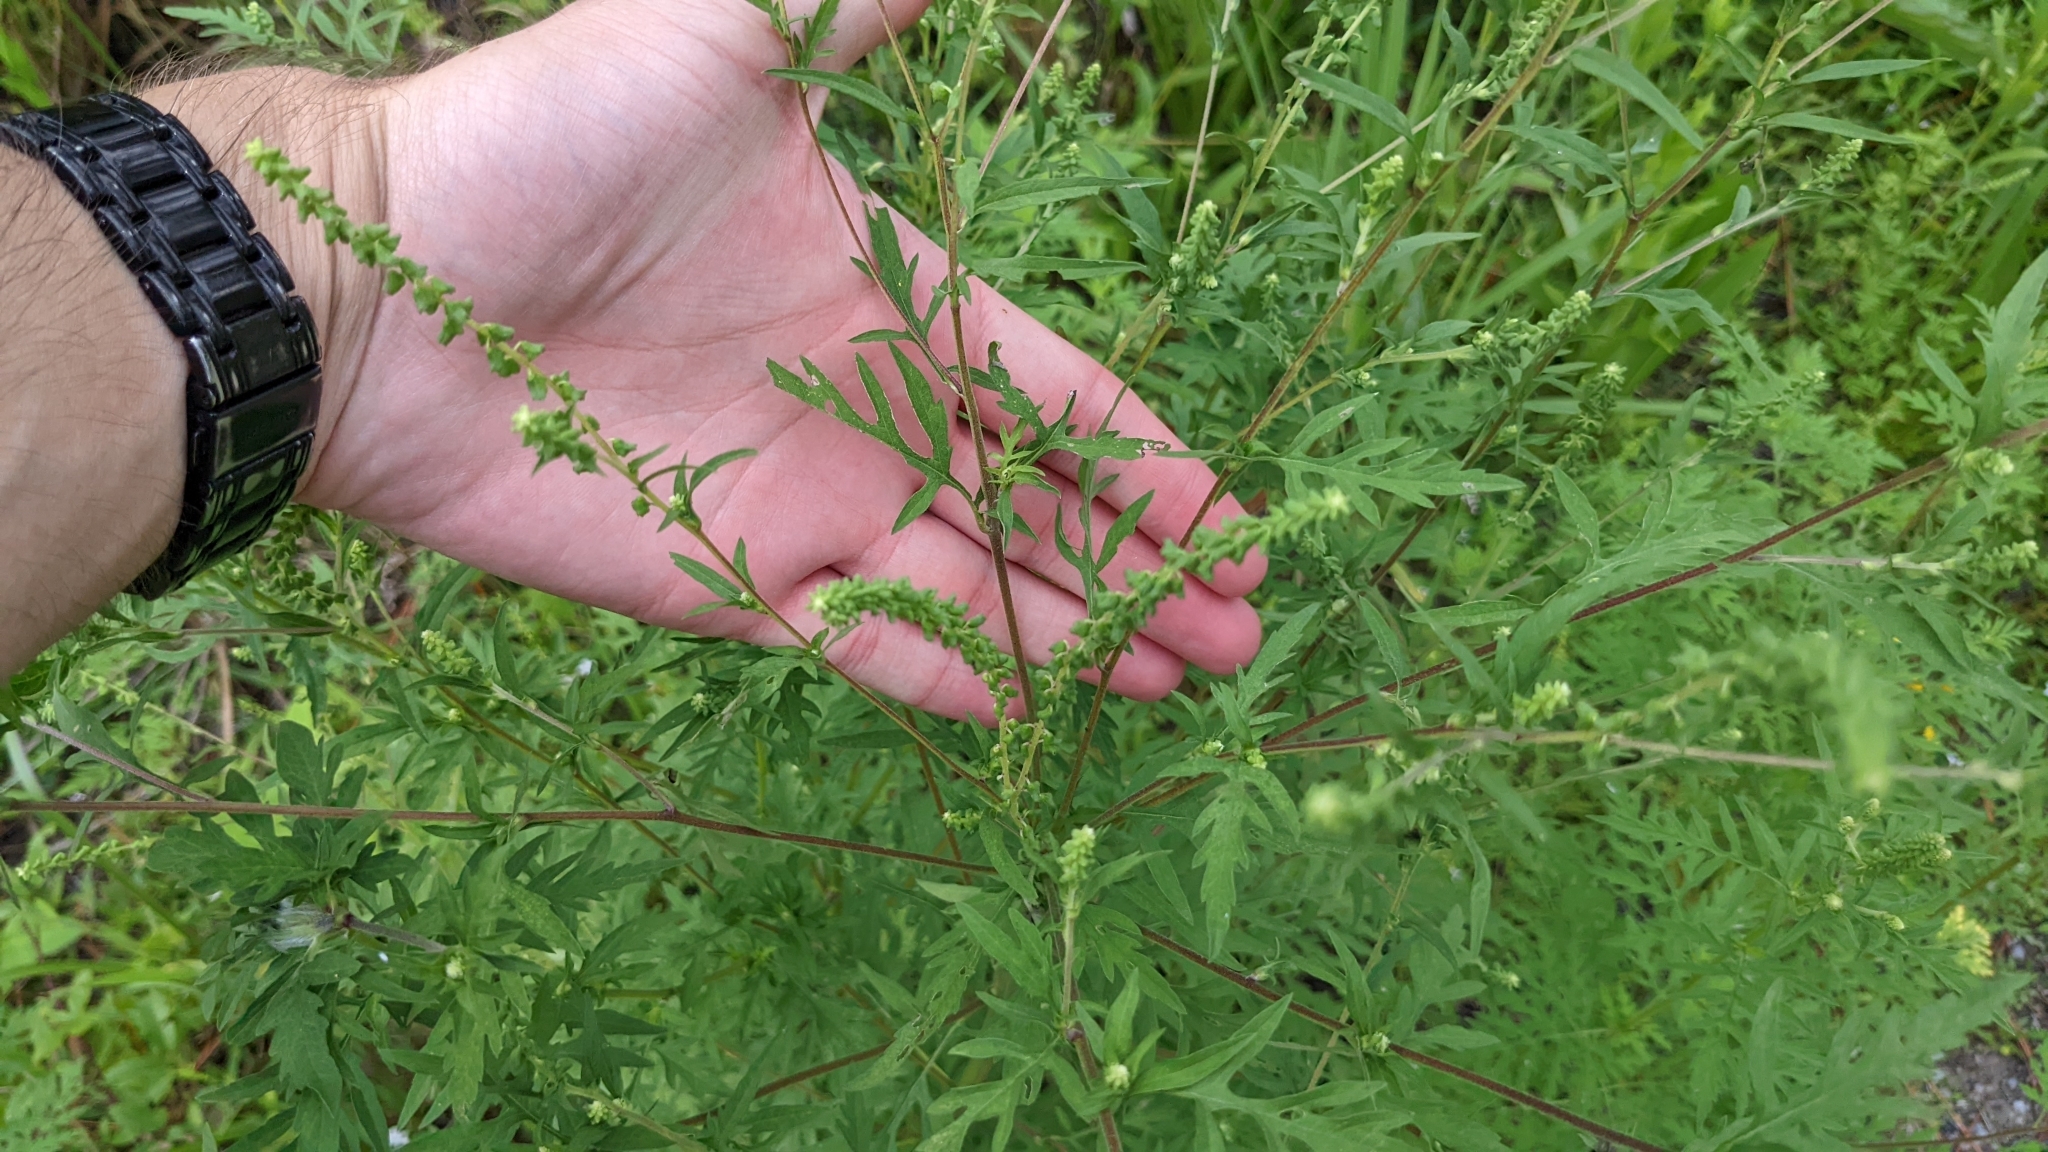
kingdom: Plantae
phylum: Tracheophyta
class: Magnoliopsida
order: Asterales
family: Asteraceae
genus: Ambrosia
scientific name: Ambrosia artemisiifolia
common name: Annual ragweed
